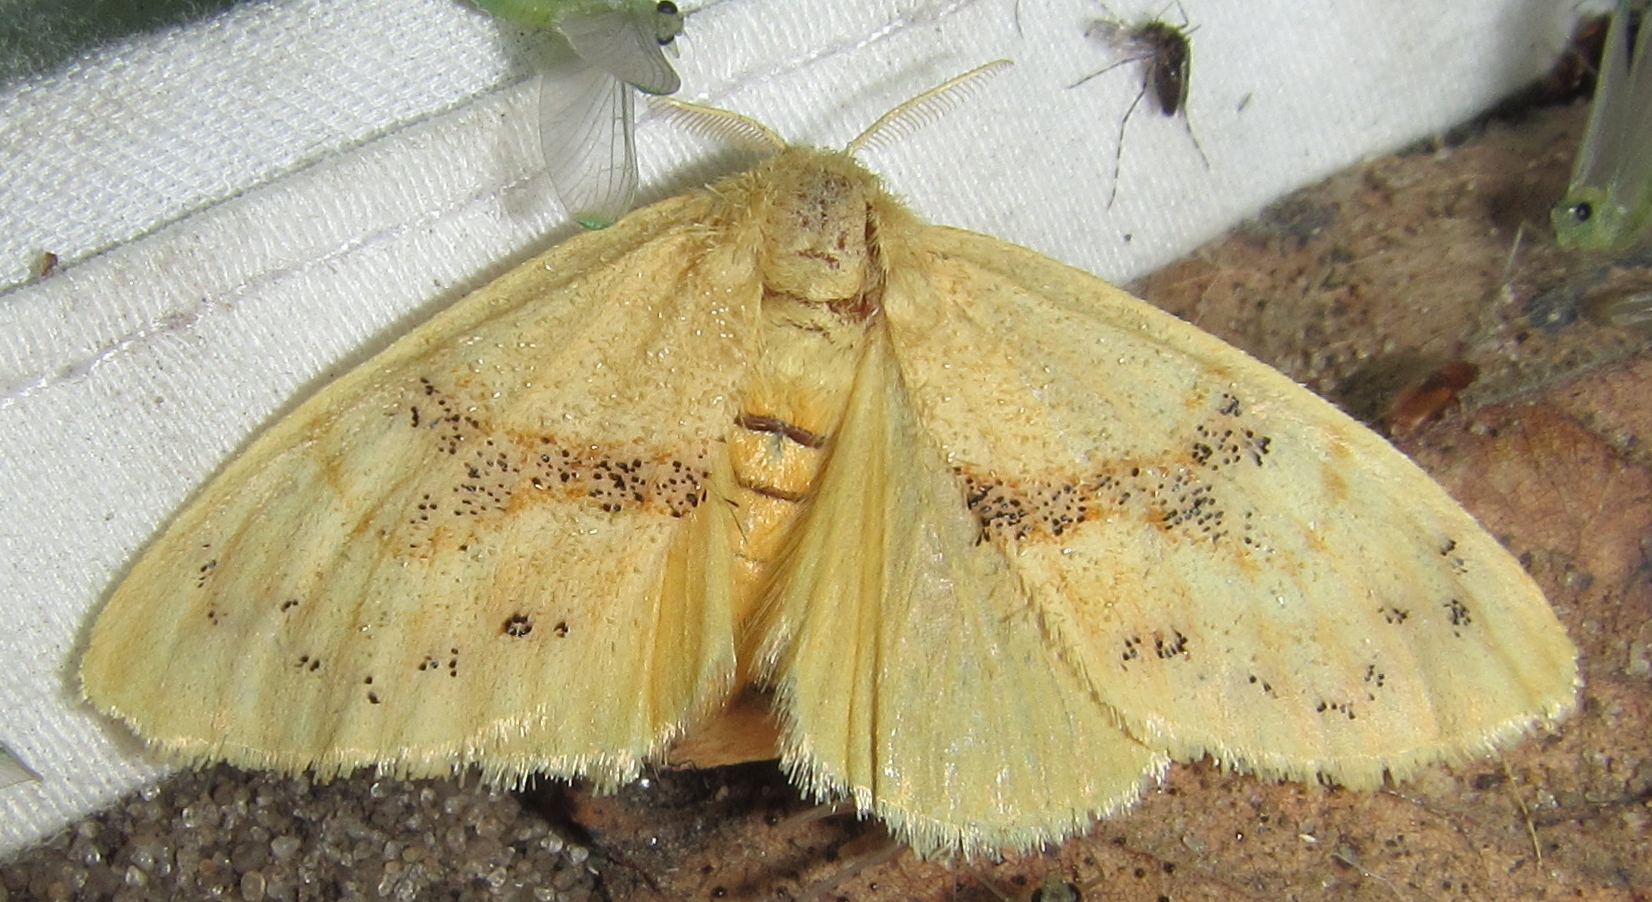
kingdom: Animalia
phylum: Arthropoda
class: Insecta
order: Lepidoptera
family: Erebidae
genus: Euproctis
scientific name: Euproctis Knappetra fasciata
